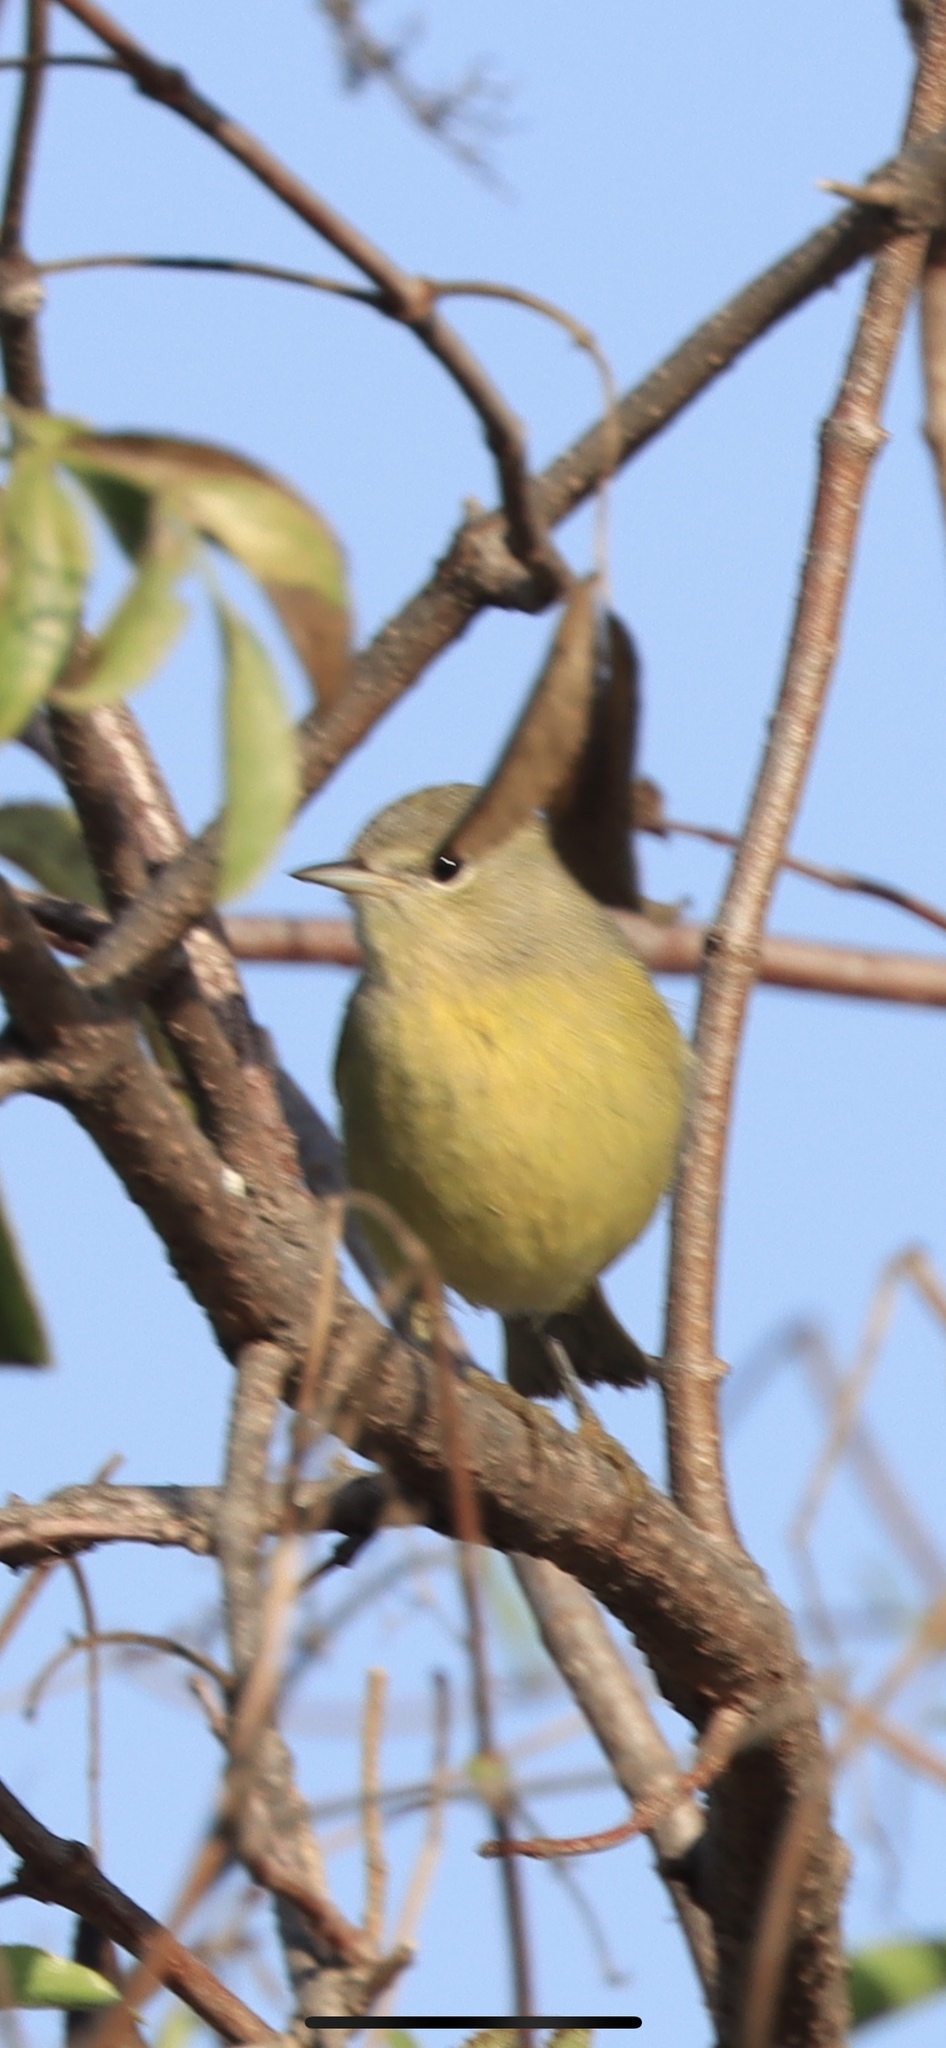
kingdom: Animalia
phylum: Chordata
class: Aves
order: Passeriformes
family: Parulidae
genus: Leiothlypis
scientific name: Leiothlypis celata
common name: Orange-crowned warbler
